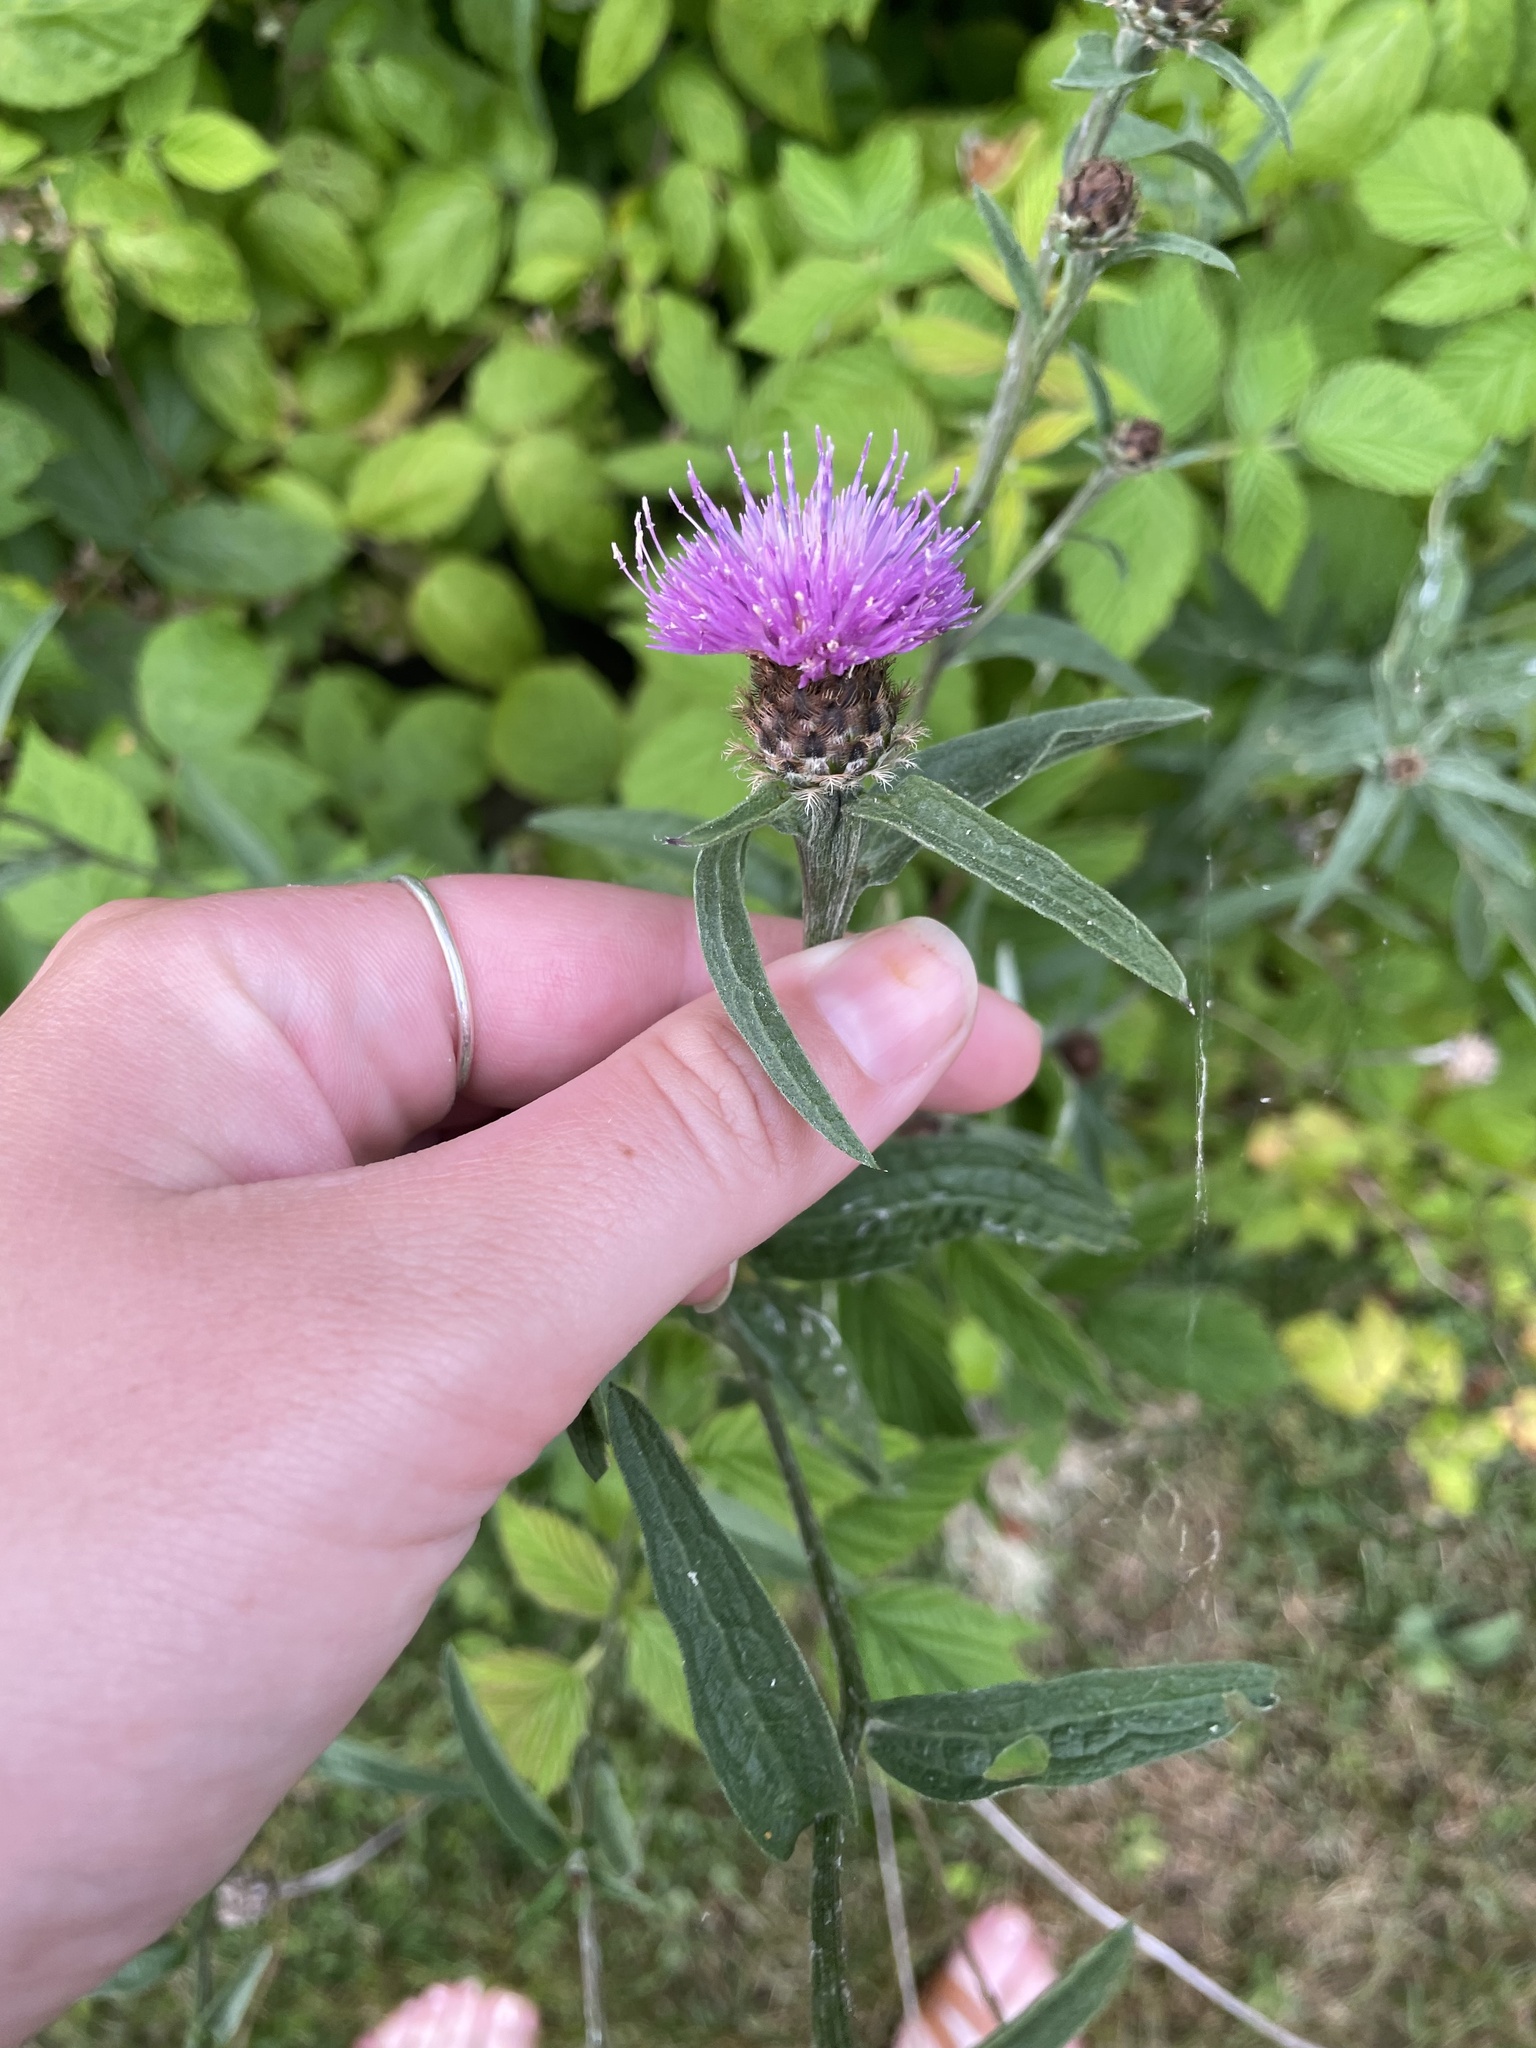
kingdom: Plantae
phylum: Tracheophyta
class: Magnoliopsida
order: Asterales
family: Asteraceae
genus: Centaurea
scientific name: Centaurea nigra
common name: Lesser knapweed
